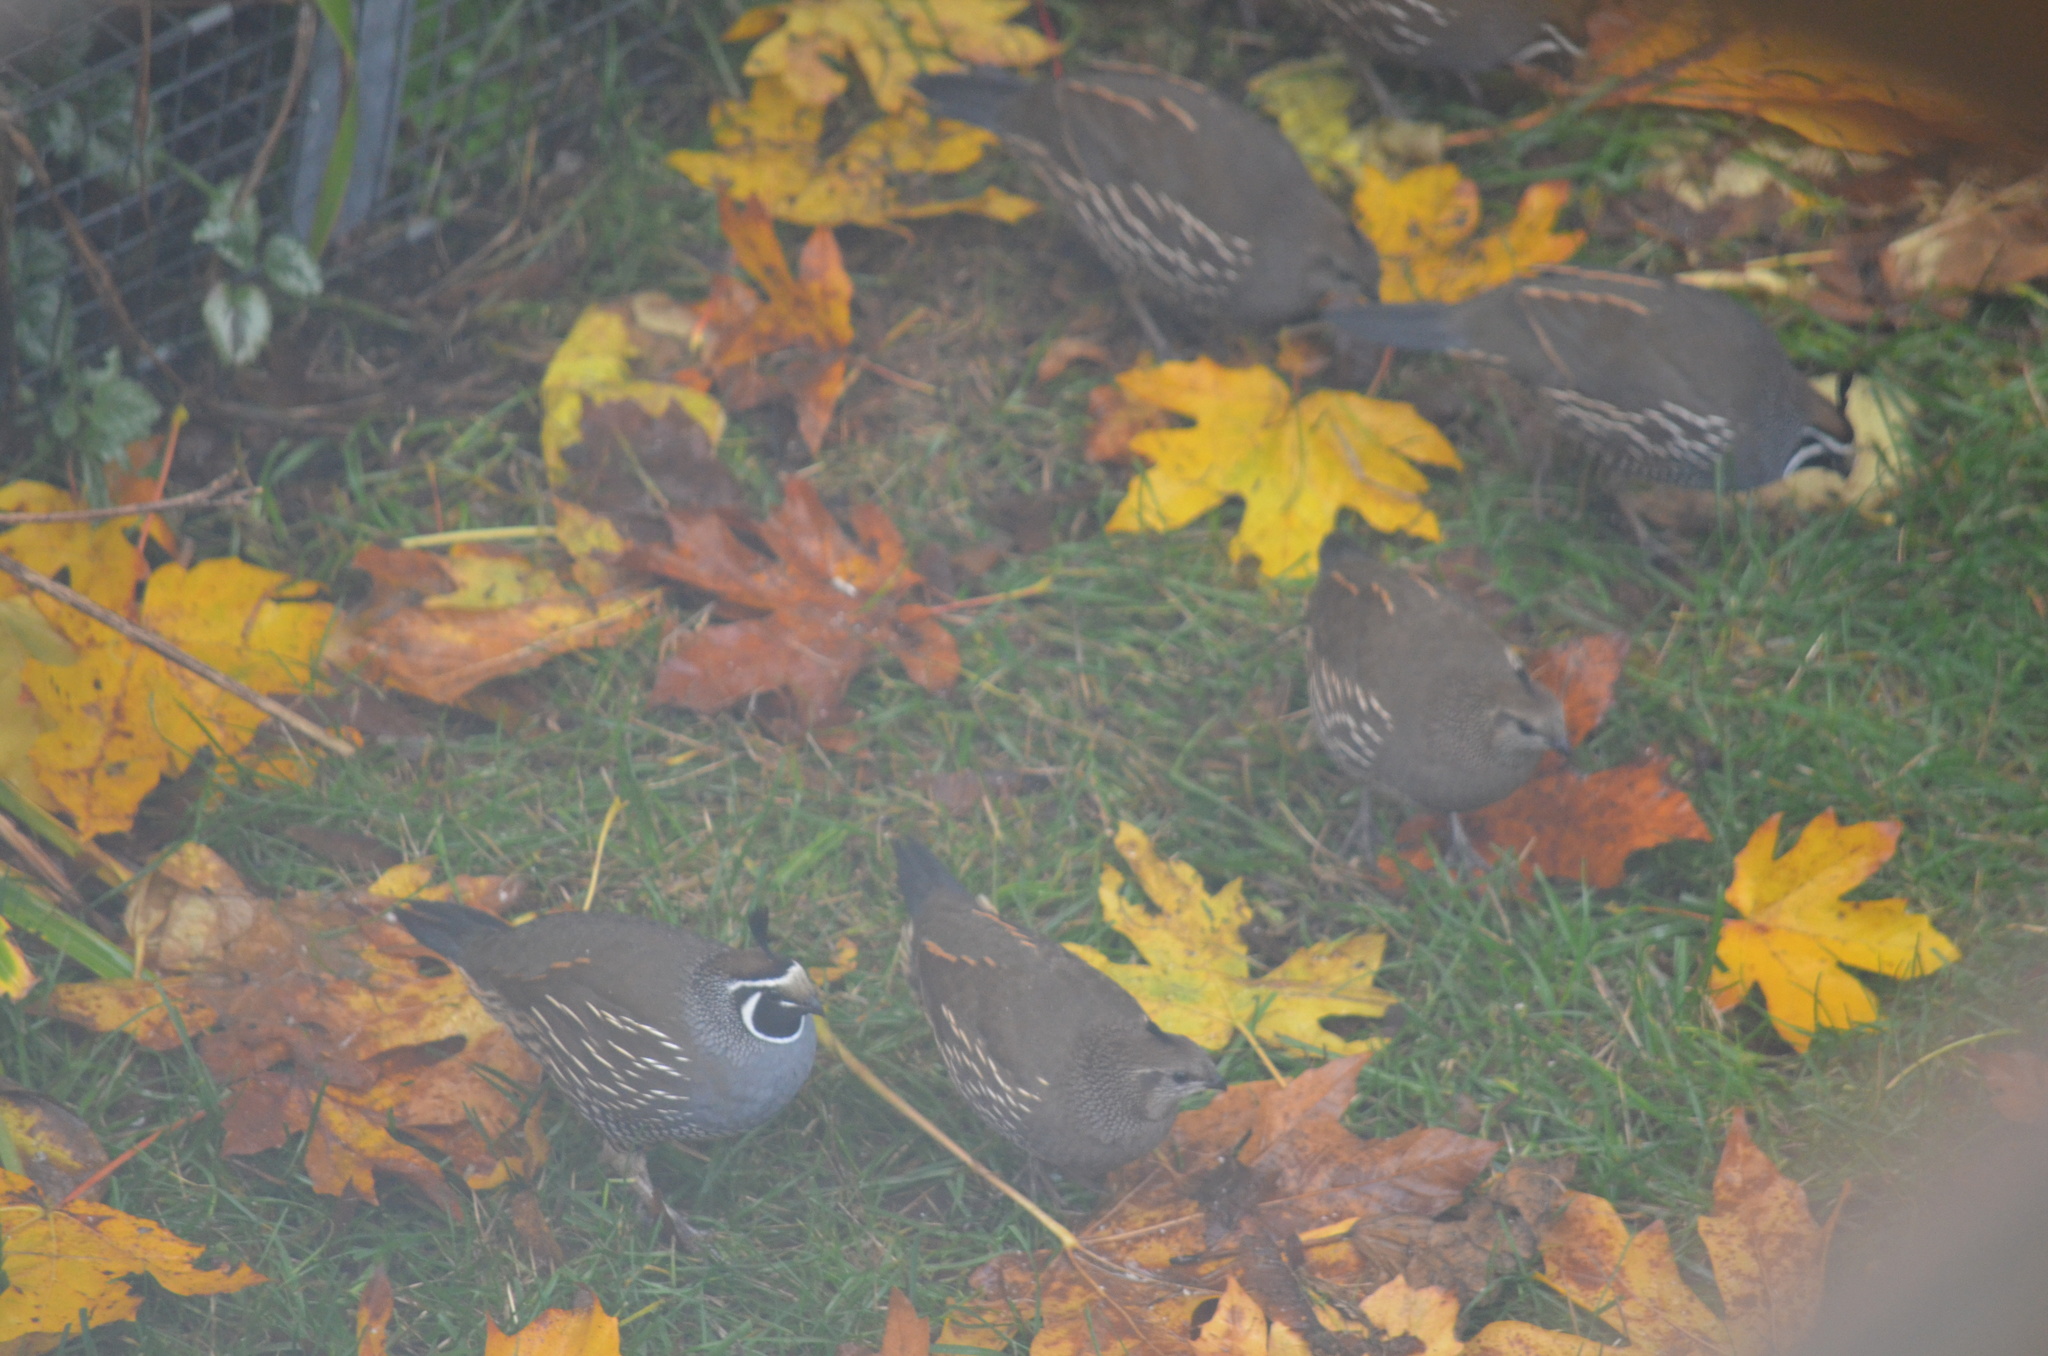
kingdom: Animalia
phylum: Chordata
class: Aves
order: Galliformes
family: Odontophoridae
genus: Callipepla
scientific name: Callipepla californica
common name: California quail
